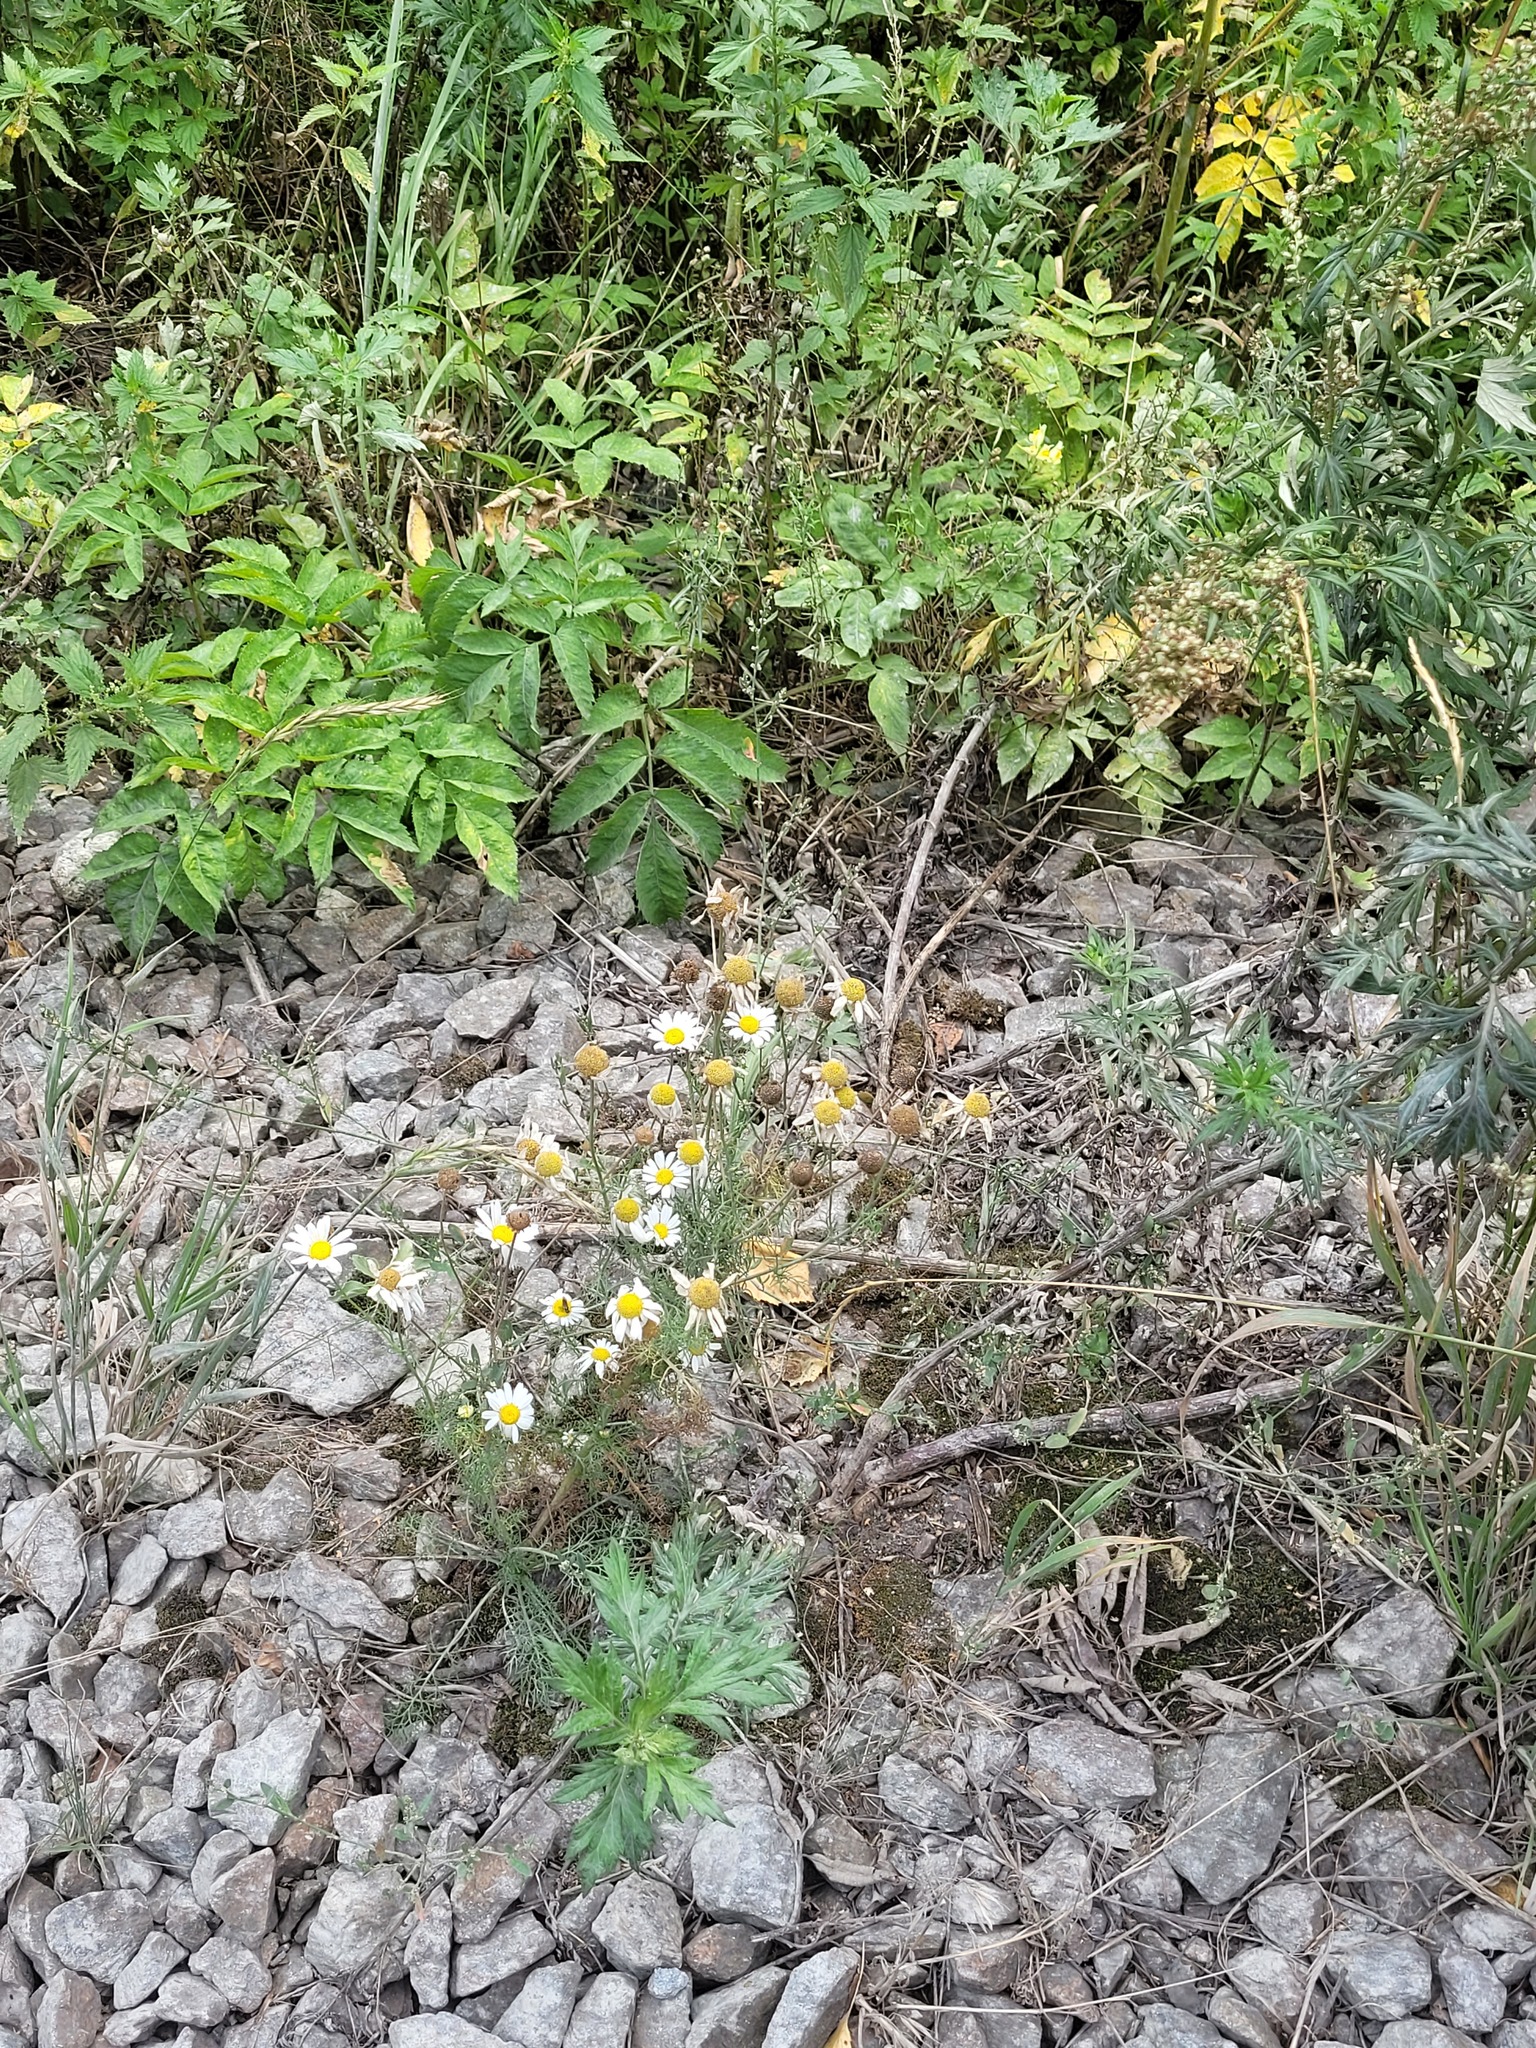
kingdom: Plantae
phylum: Tracheophyta
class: Magnoliopsida
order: Asterales
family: Asteraceae
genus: Tripleurospermum
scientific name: Tripleurospermum inodorum
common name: Scentless mayweed
